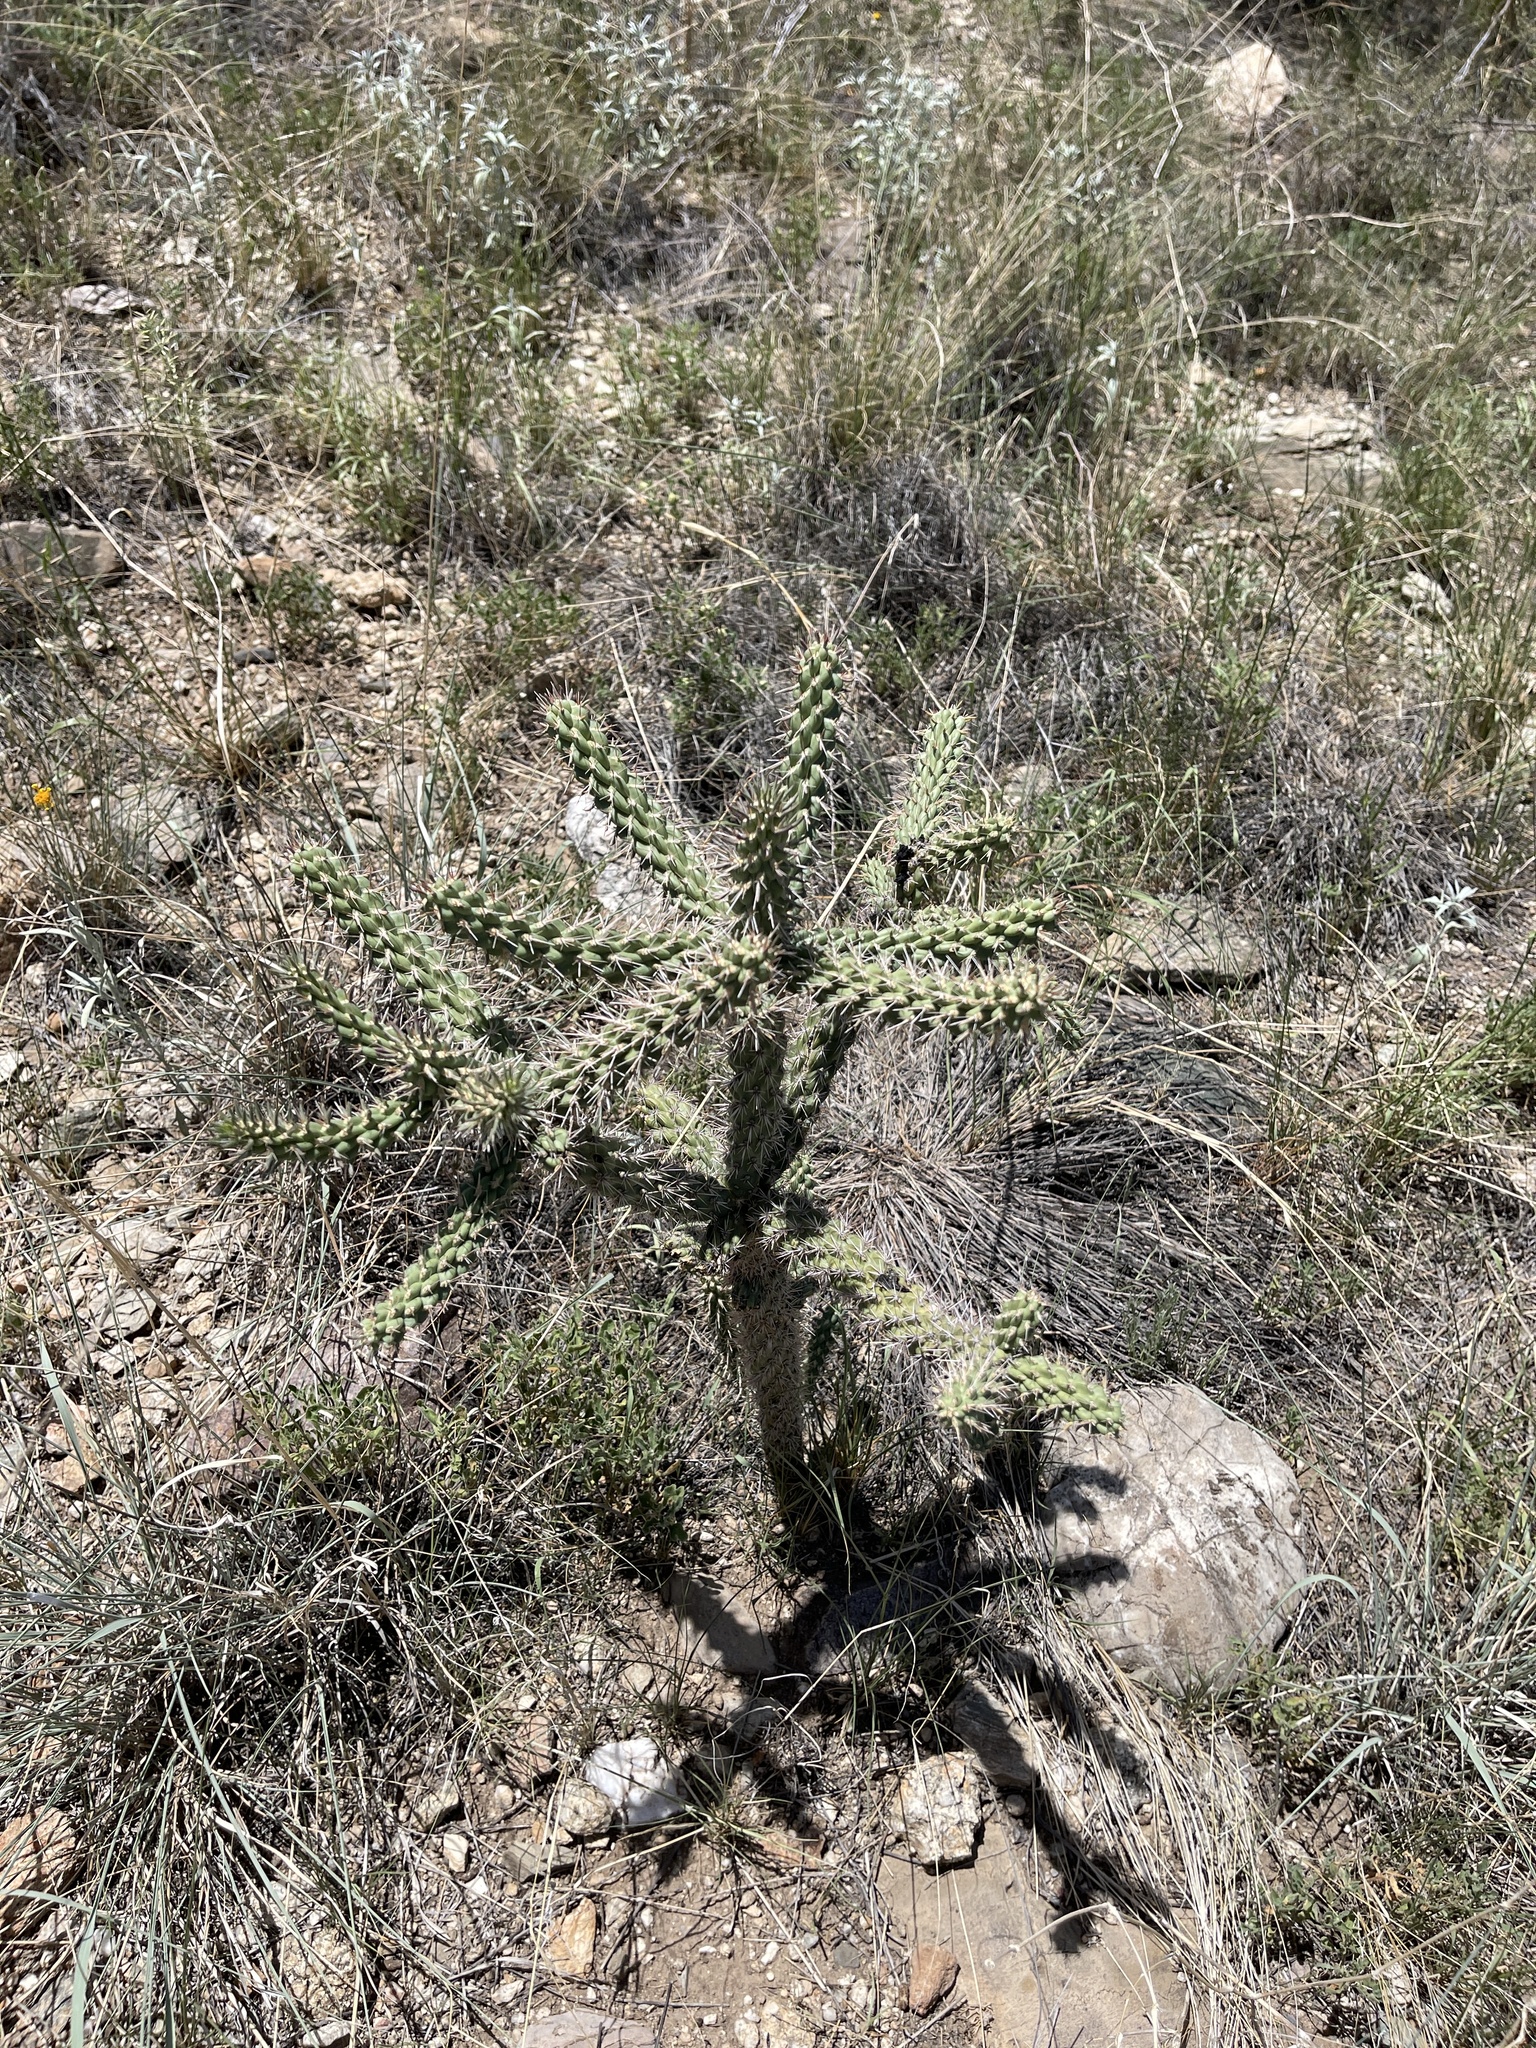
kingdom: Plantae
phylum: Tracheophyta
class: Magnoliopsida
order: Caryophyllales
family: Cactaceae
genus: Cylindropuntia
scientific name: Cylindropuntia imbricata
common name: Candelabrum cactus
